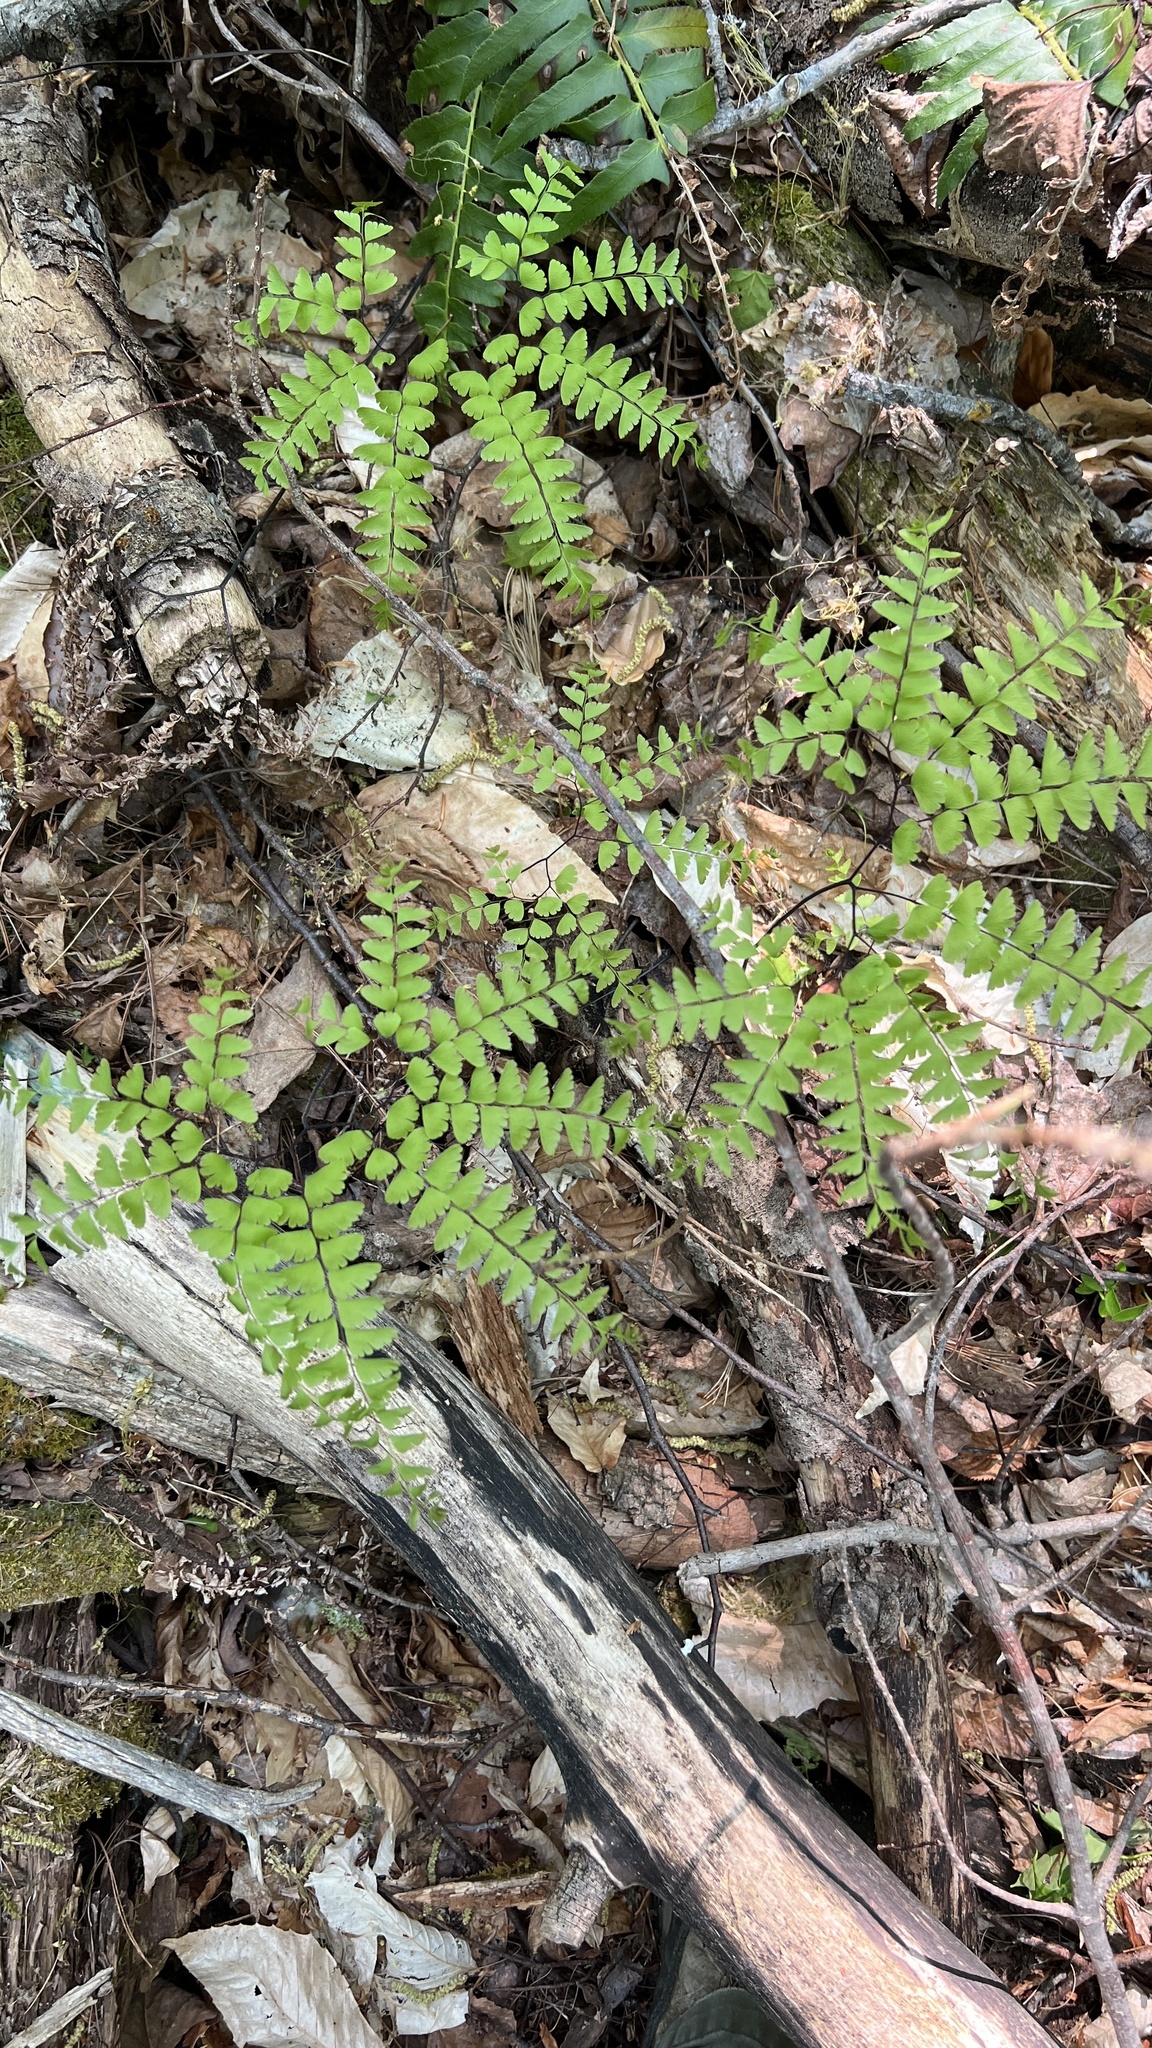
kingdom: Plantae
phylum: Tracheophyta
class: Polypodiopsida
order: Polypodiales
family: Pteridaceae
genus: Adiantum
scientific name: Adiantum pedatum
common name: Five-finger fern
